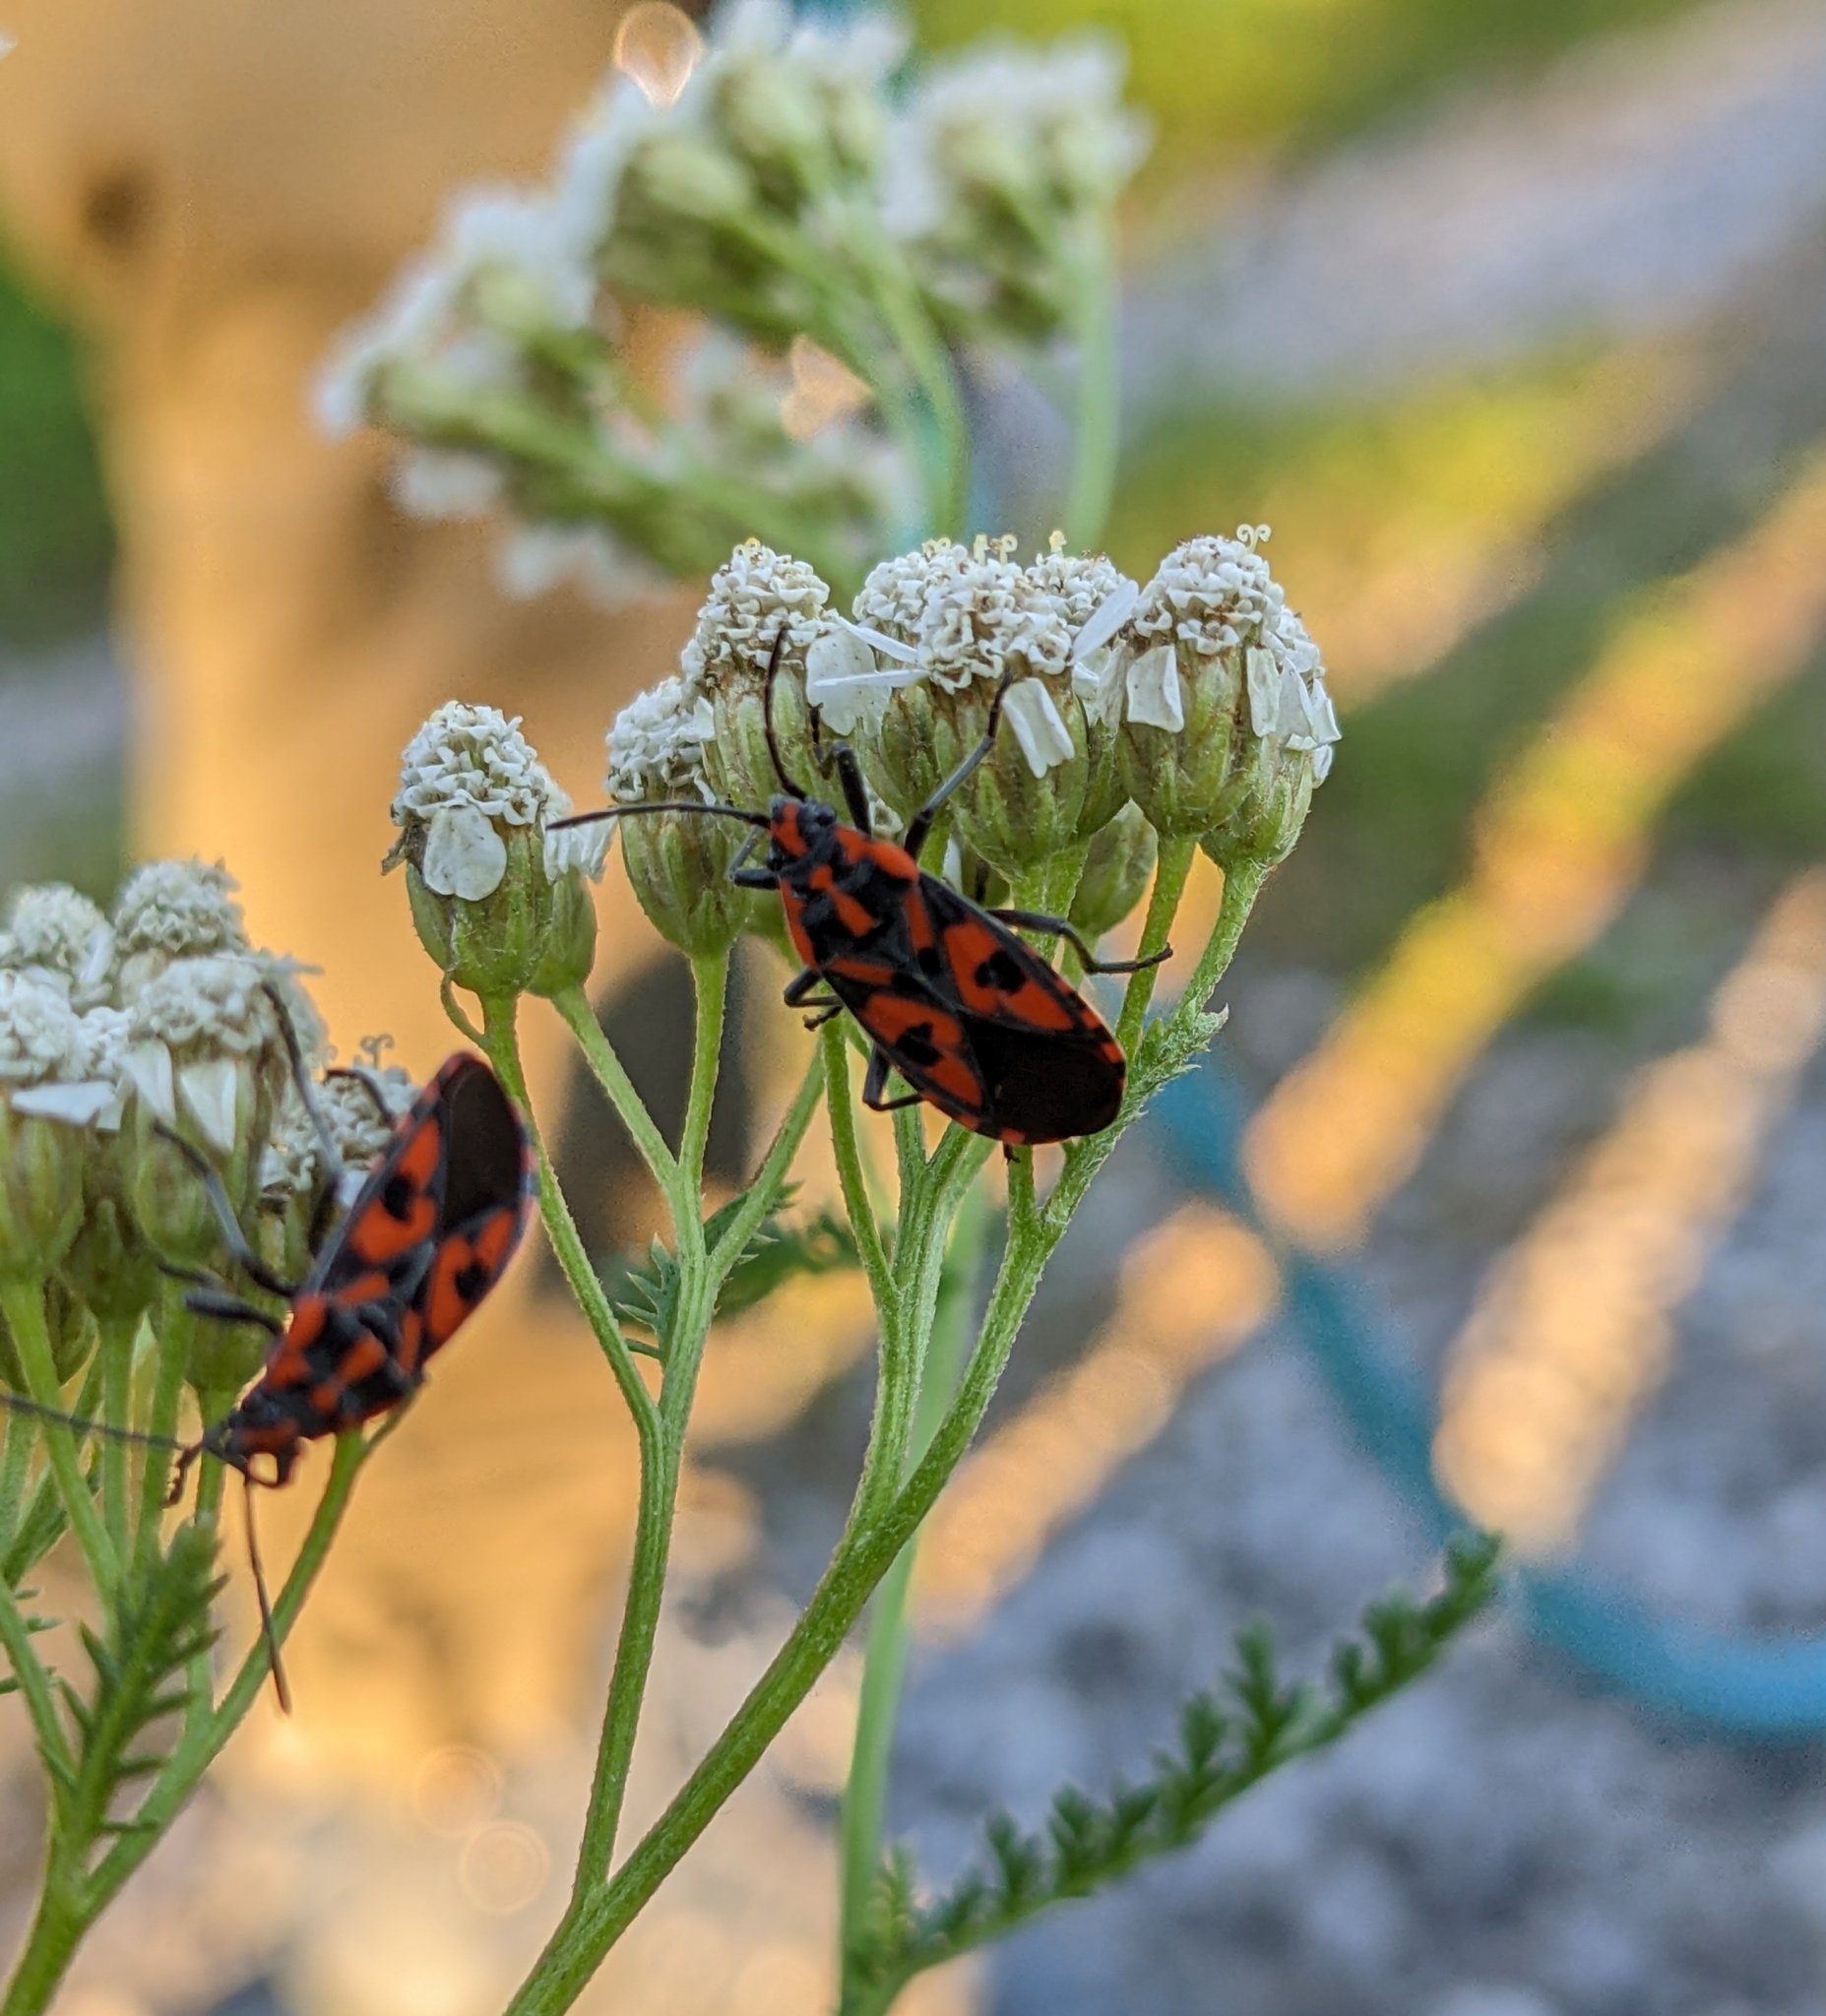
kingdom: Animalia
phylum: Arthropoda
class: Insecta
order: Hemiptera
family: Lygaeidae
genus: Spilostethus
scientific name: Spilostethus saxatilis
